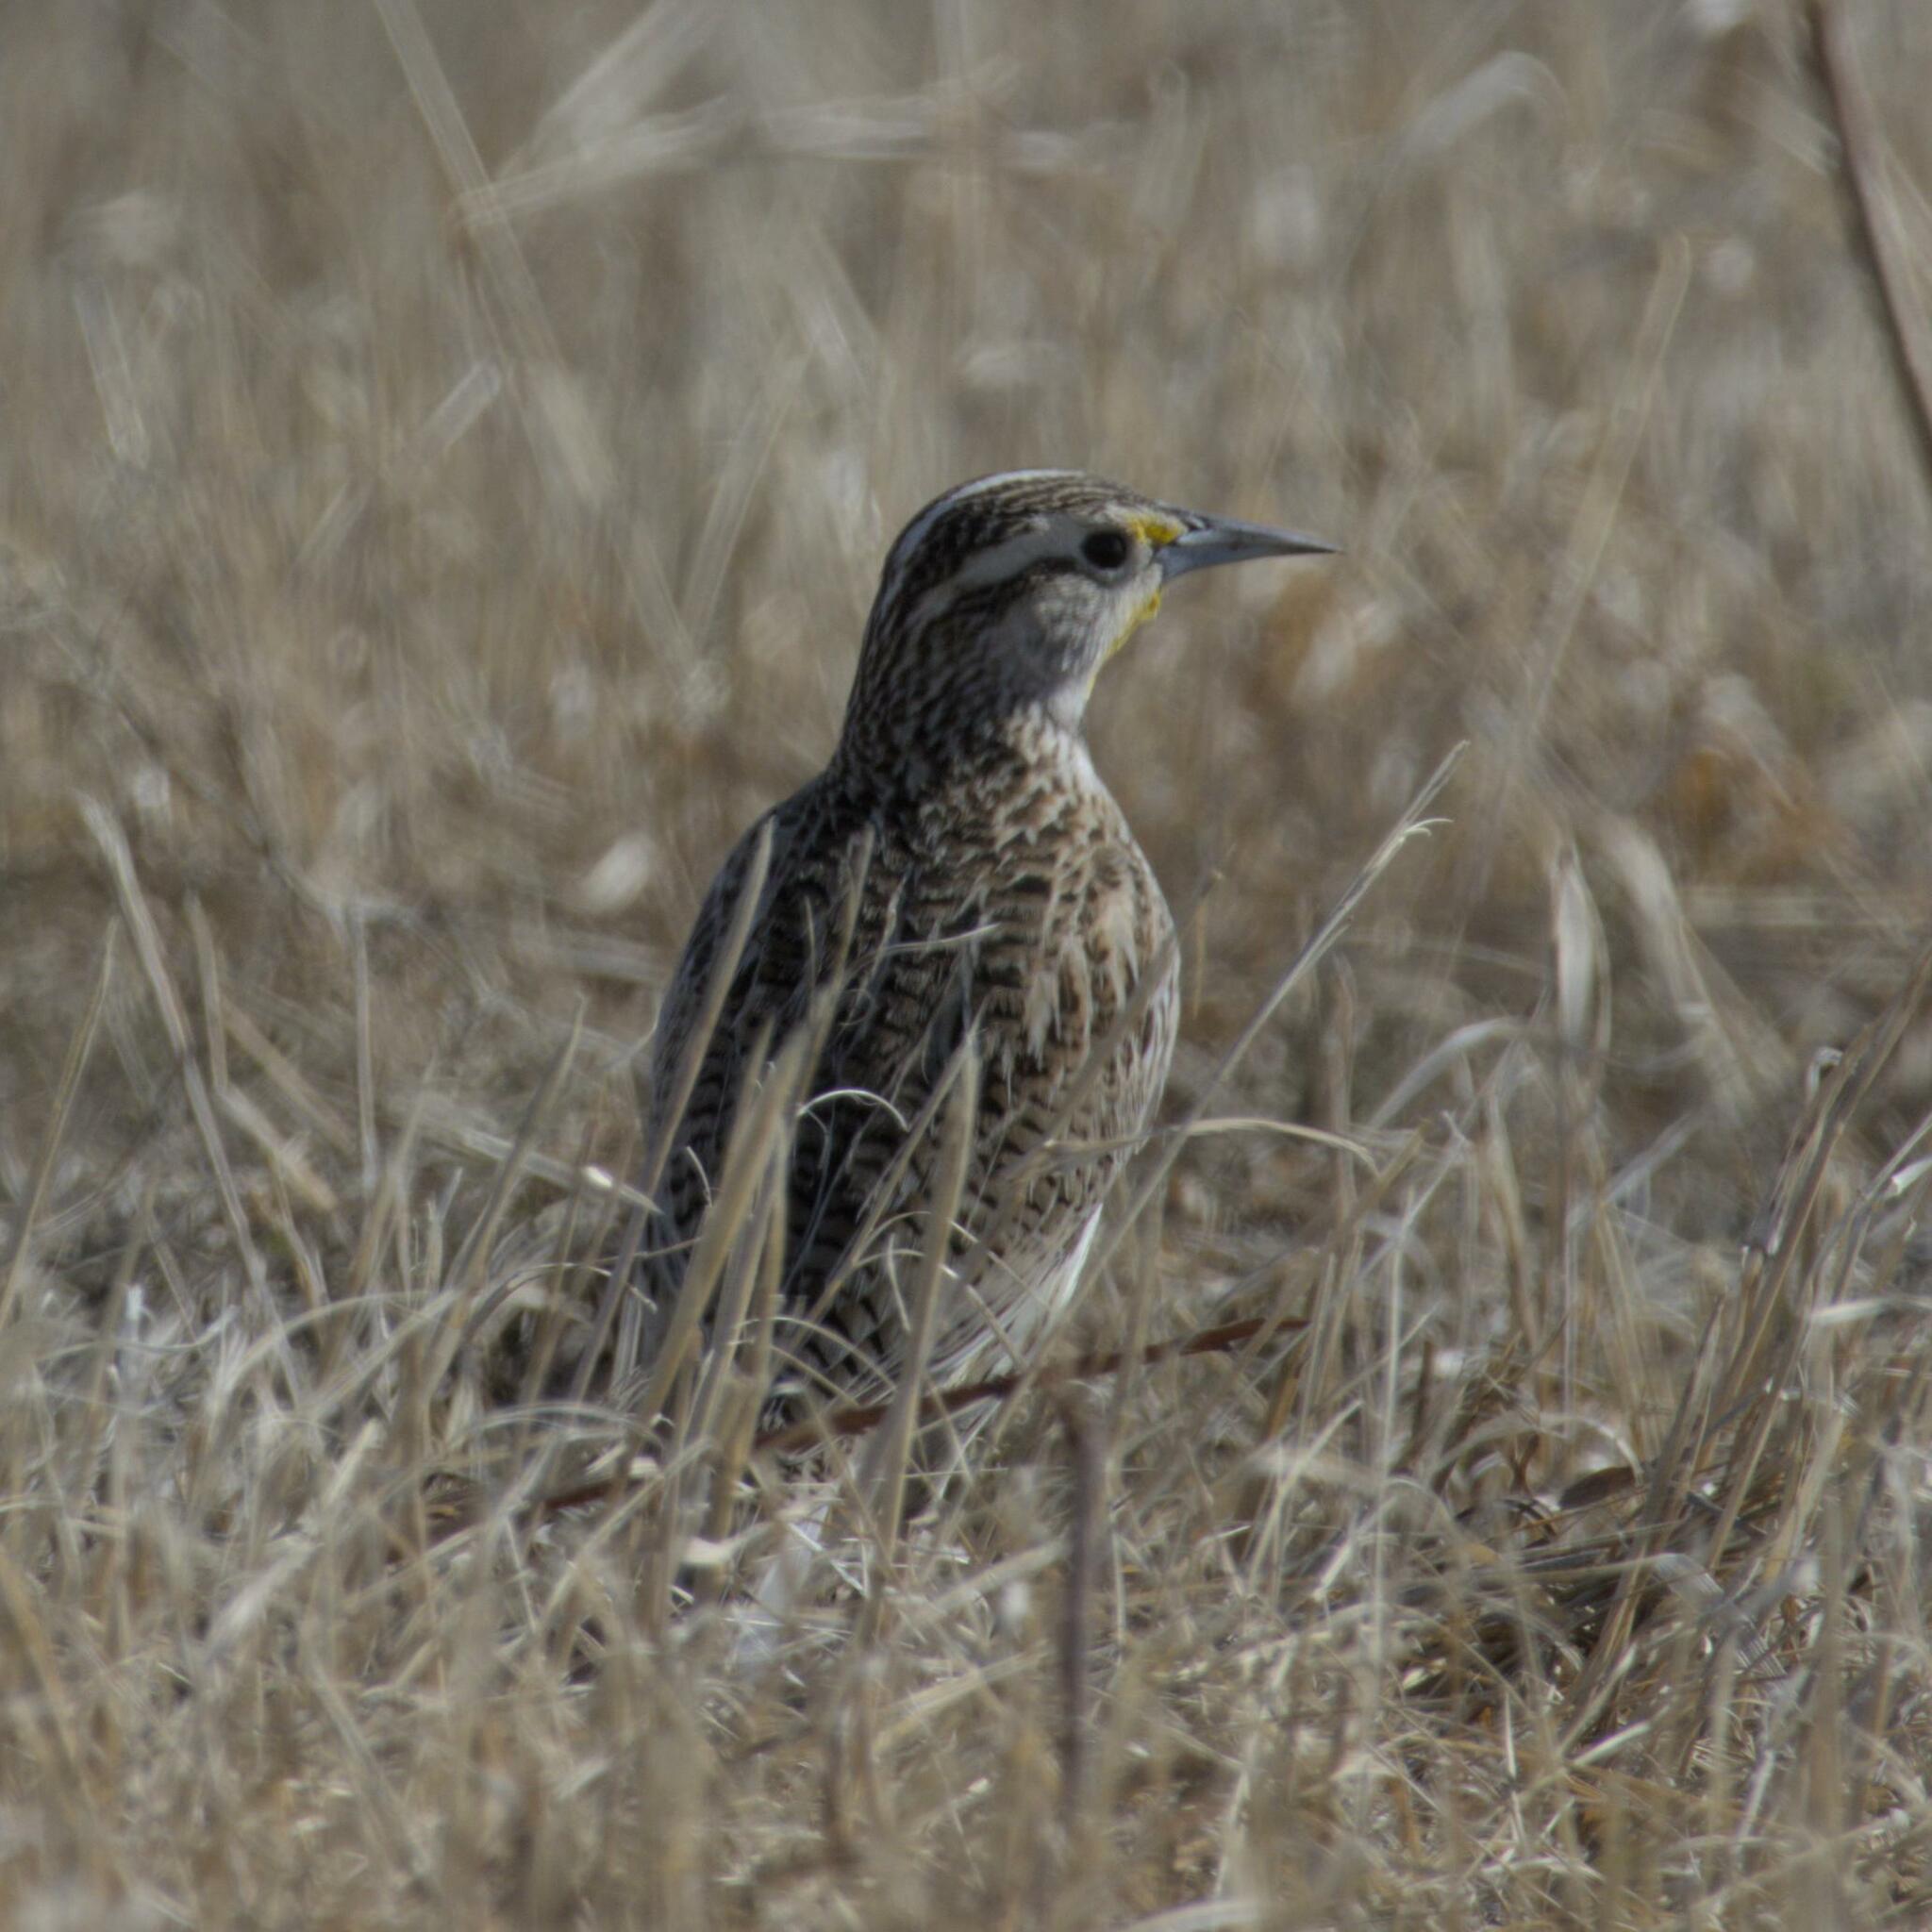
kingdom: Animalia
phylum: Chordata
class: Aves
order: Passeriformes
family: Icteridae
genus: Sturnella
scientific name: Sturnella neglecta
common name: Western meadowlark
